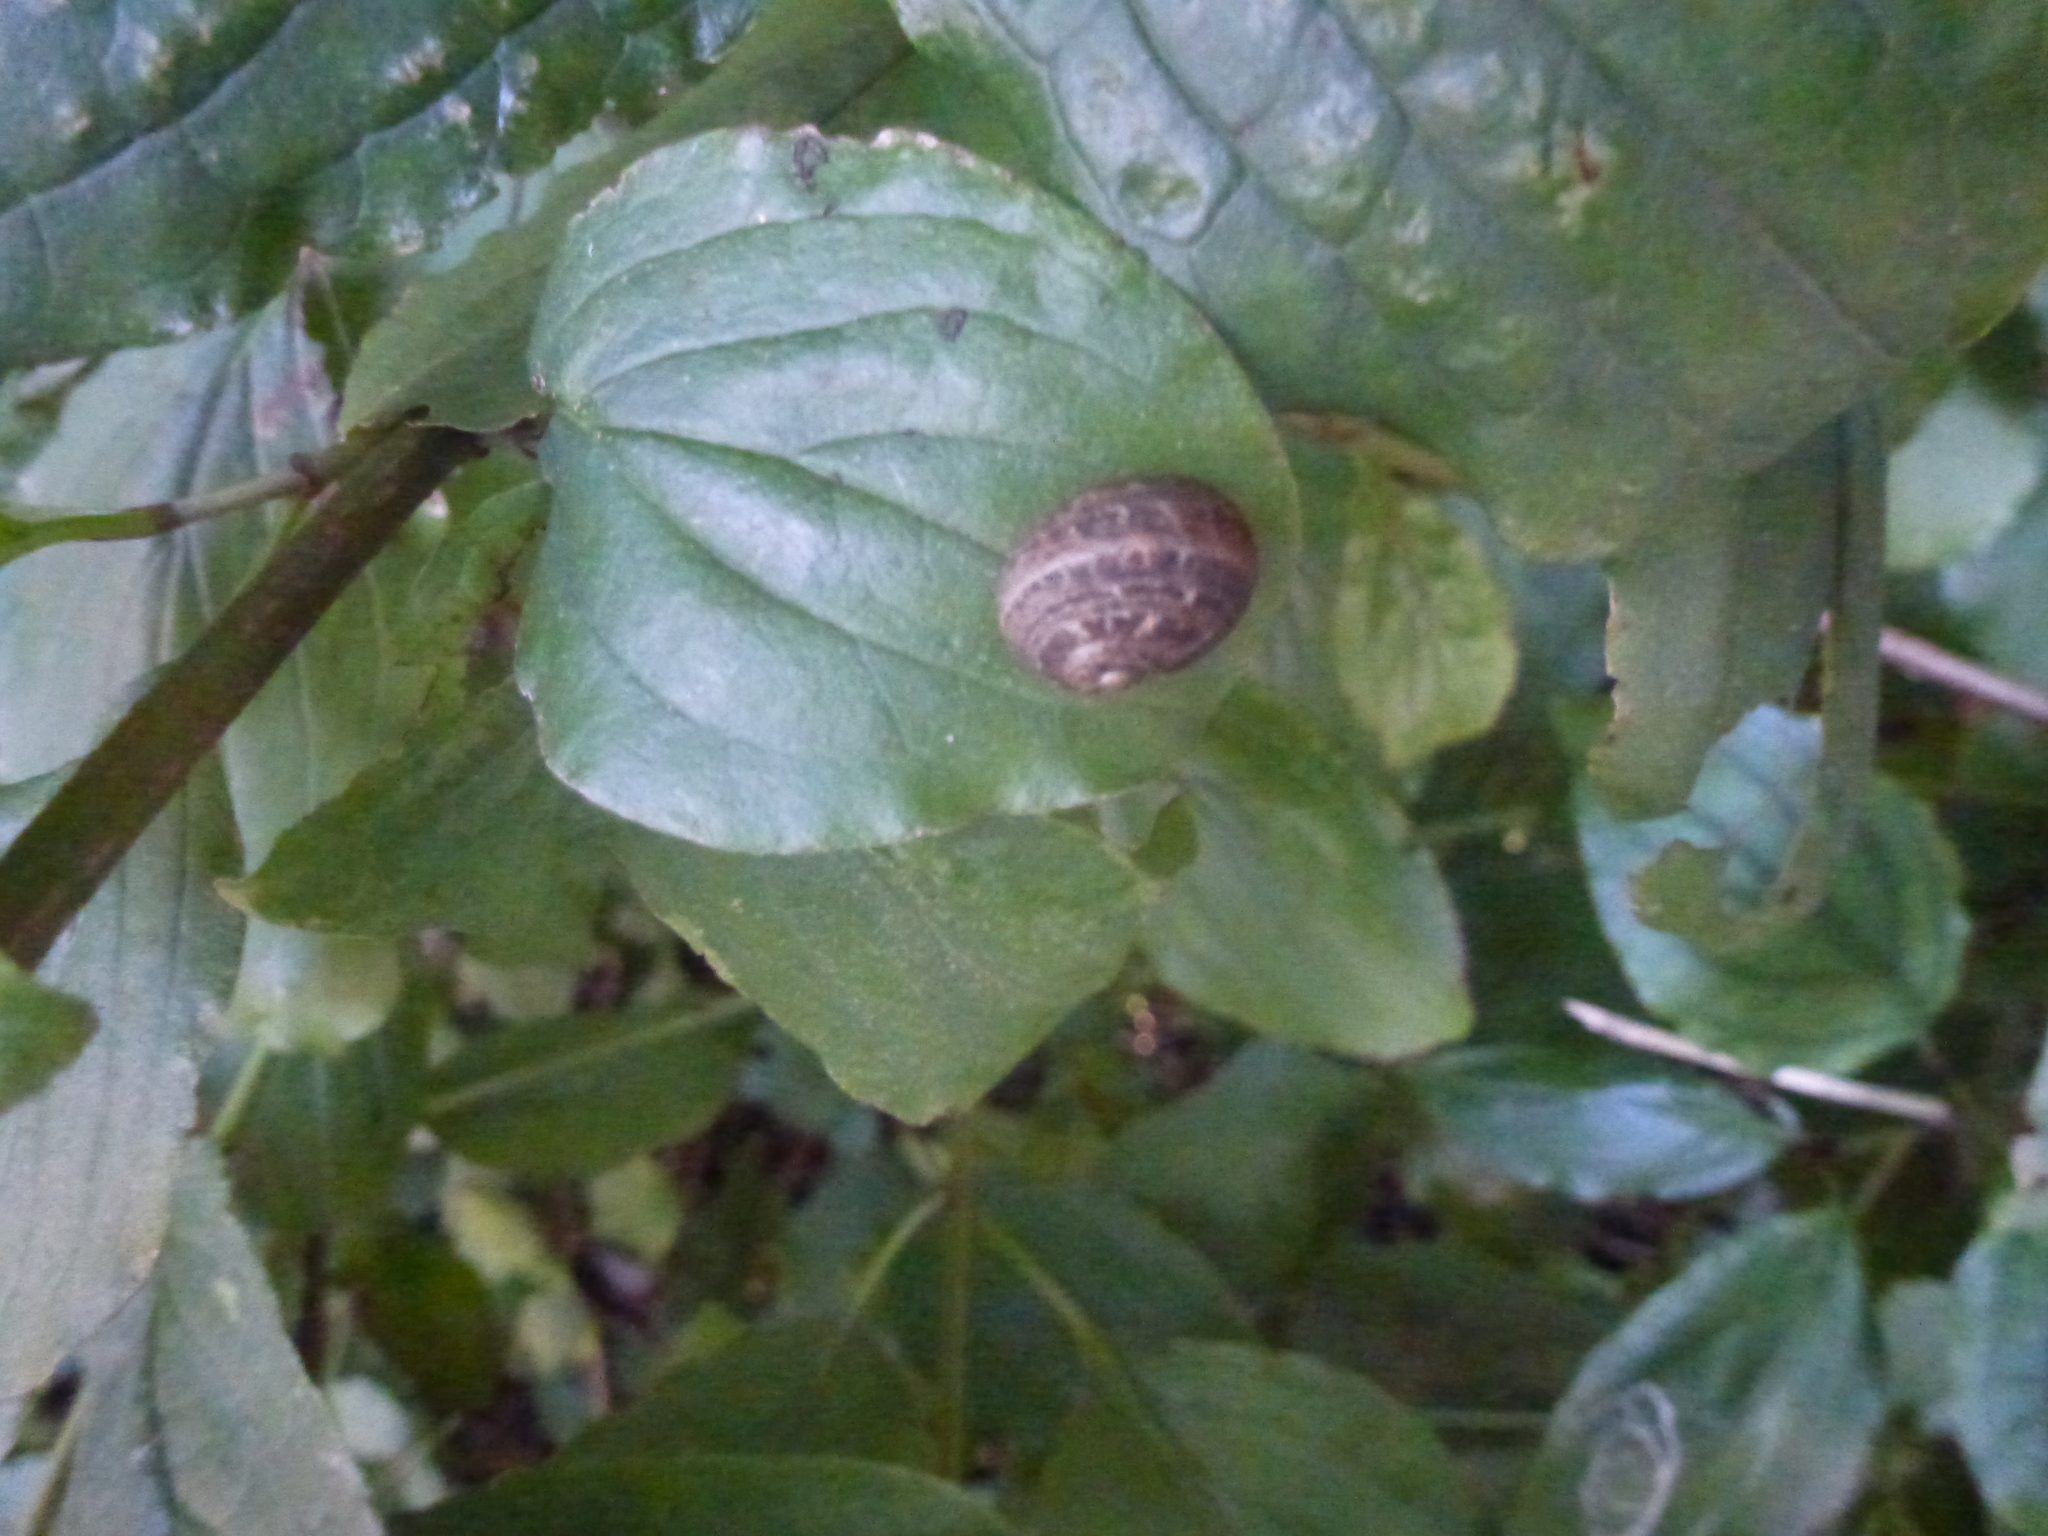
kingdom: Animalia
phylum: Mollusca
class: Gastropoda
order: Stylommatophora
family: Helicidae
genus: Cornu
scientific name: Cornu aspersum
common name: Brown garden snail
